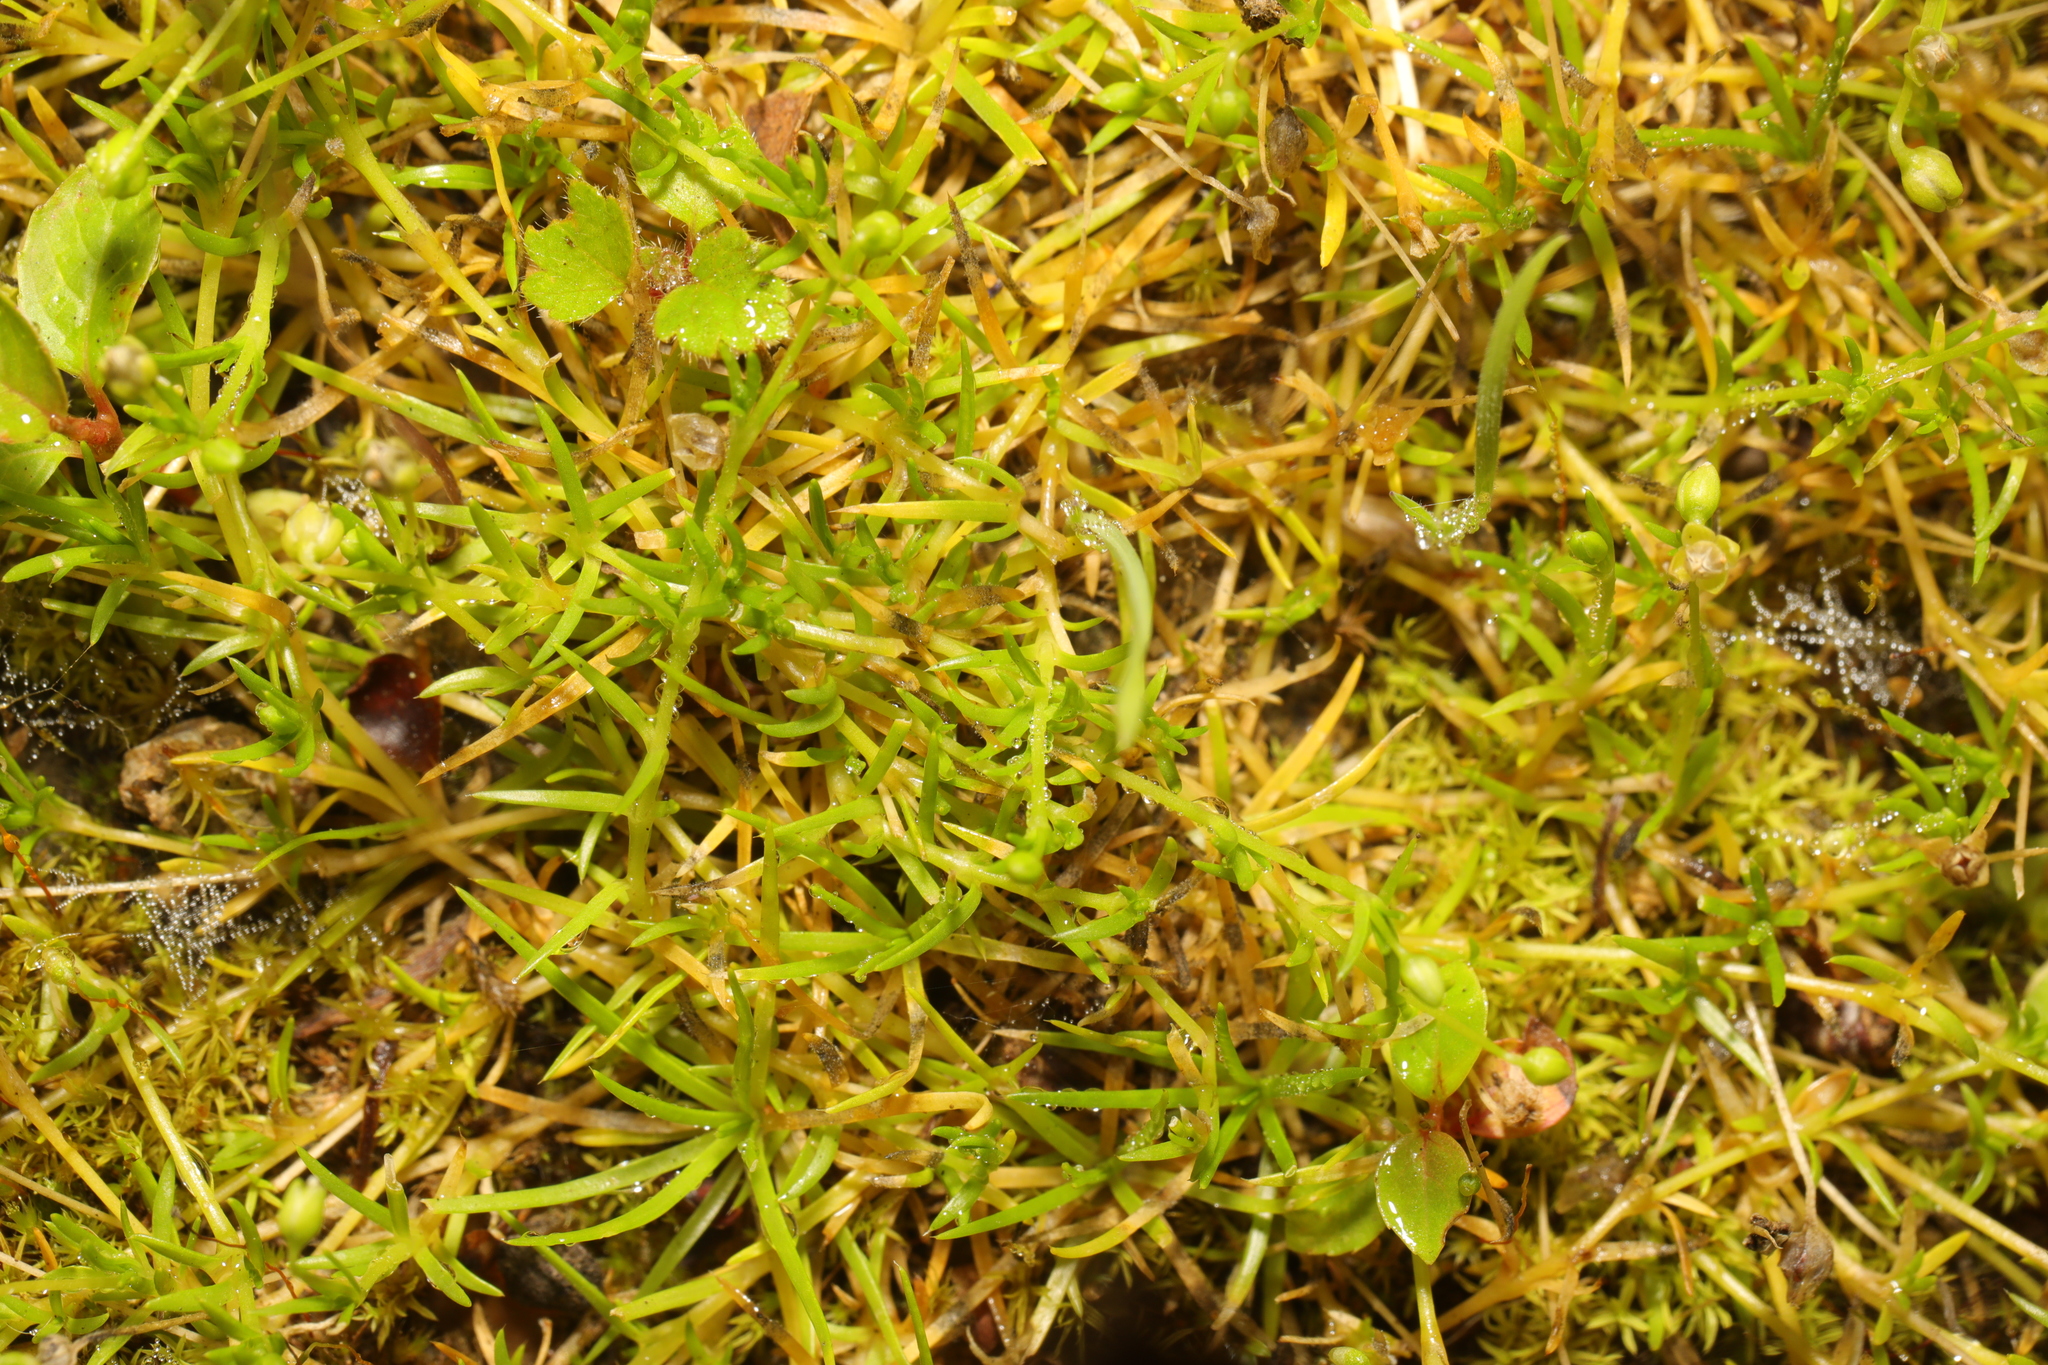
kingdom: Plantae
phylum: Tracheophyta
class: Magnoliopsida
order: Caryophyllales
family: Caryophyllaceae
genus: Sagina
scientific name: Sagina procumbens
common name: Procumbent pearlwort
